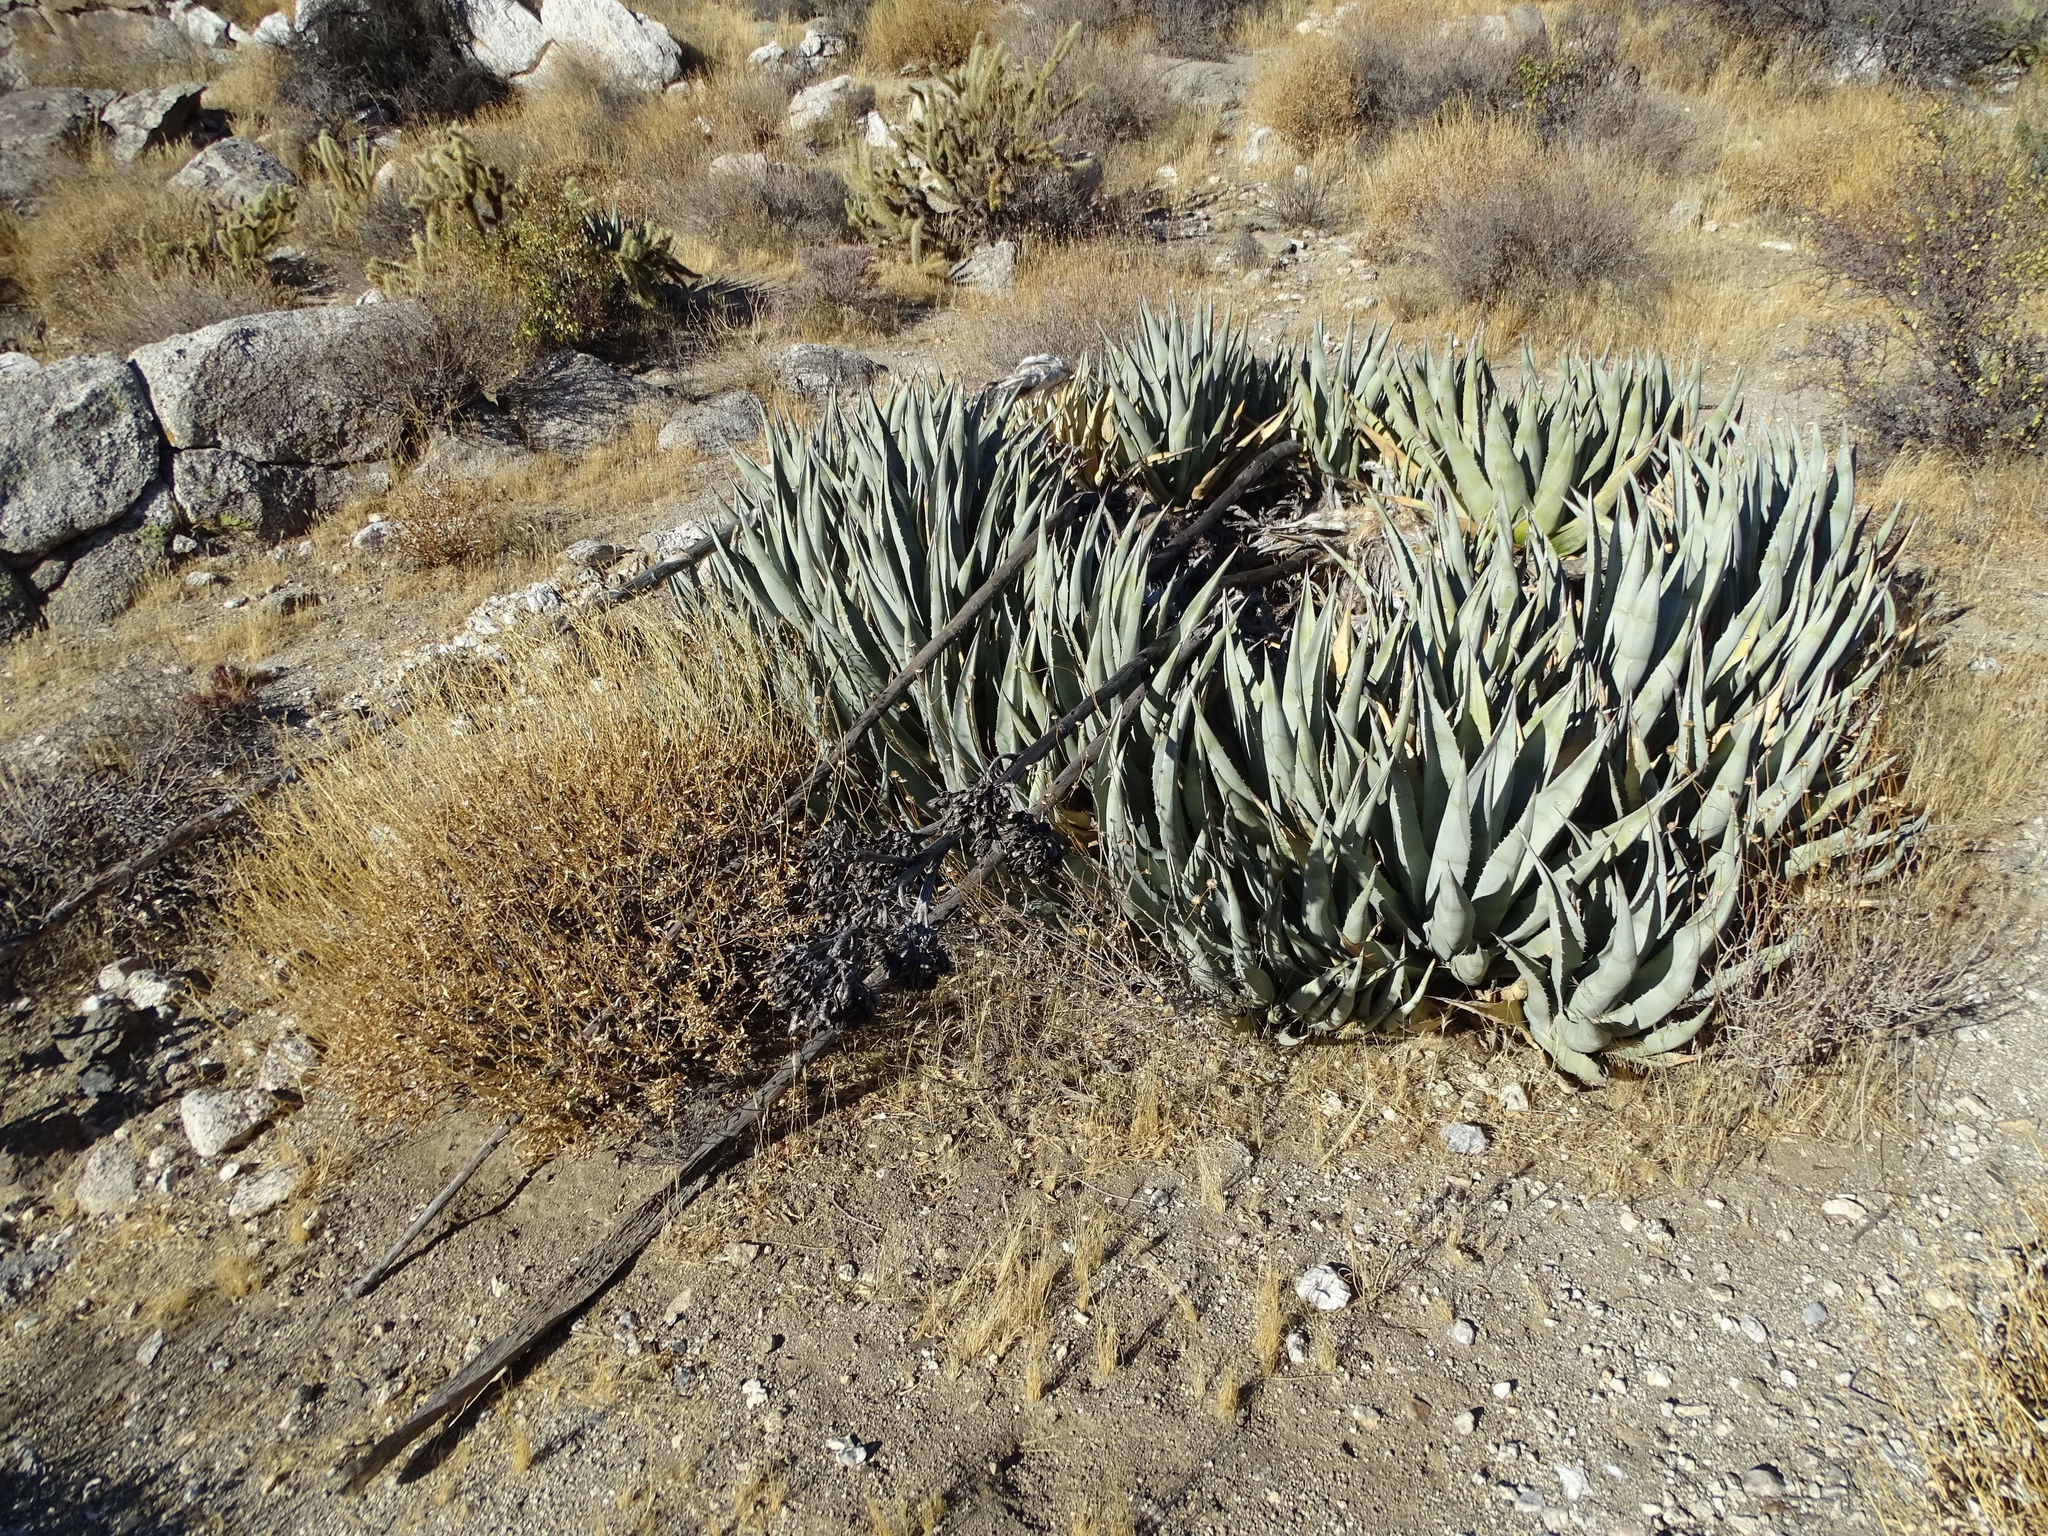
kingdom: Plantae
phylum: Tracheophyta
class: Liliopsida
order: Asparagales
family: Asparagaceae
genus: Agave
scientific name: Agave deserti
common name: Desert agave
